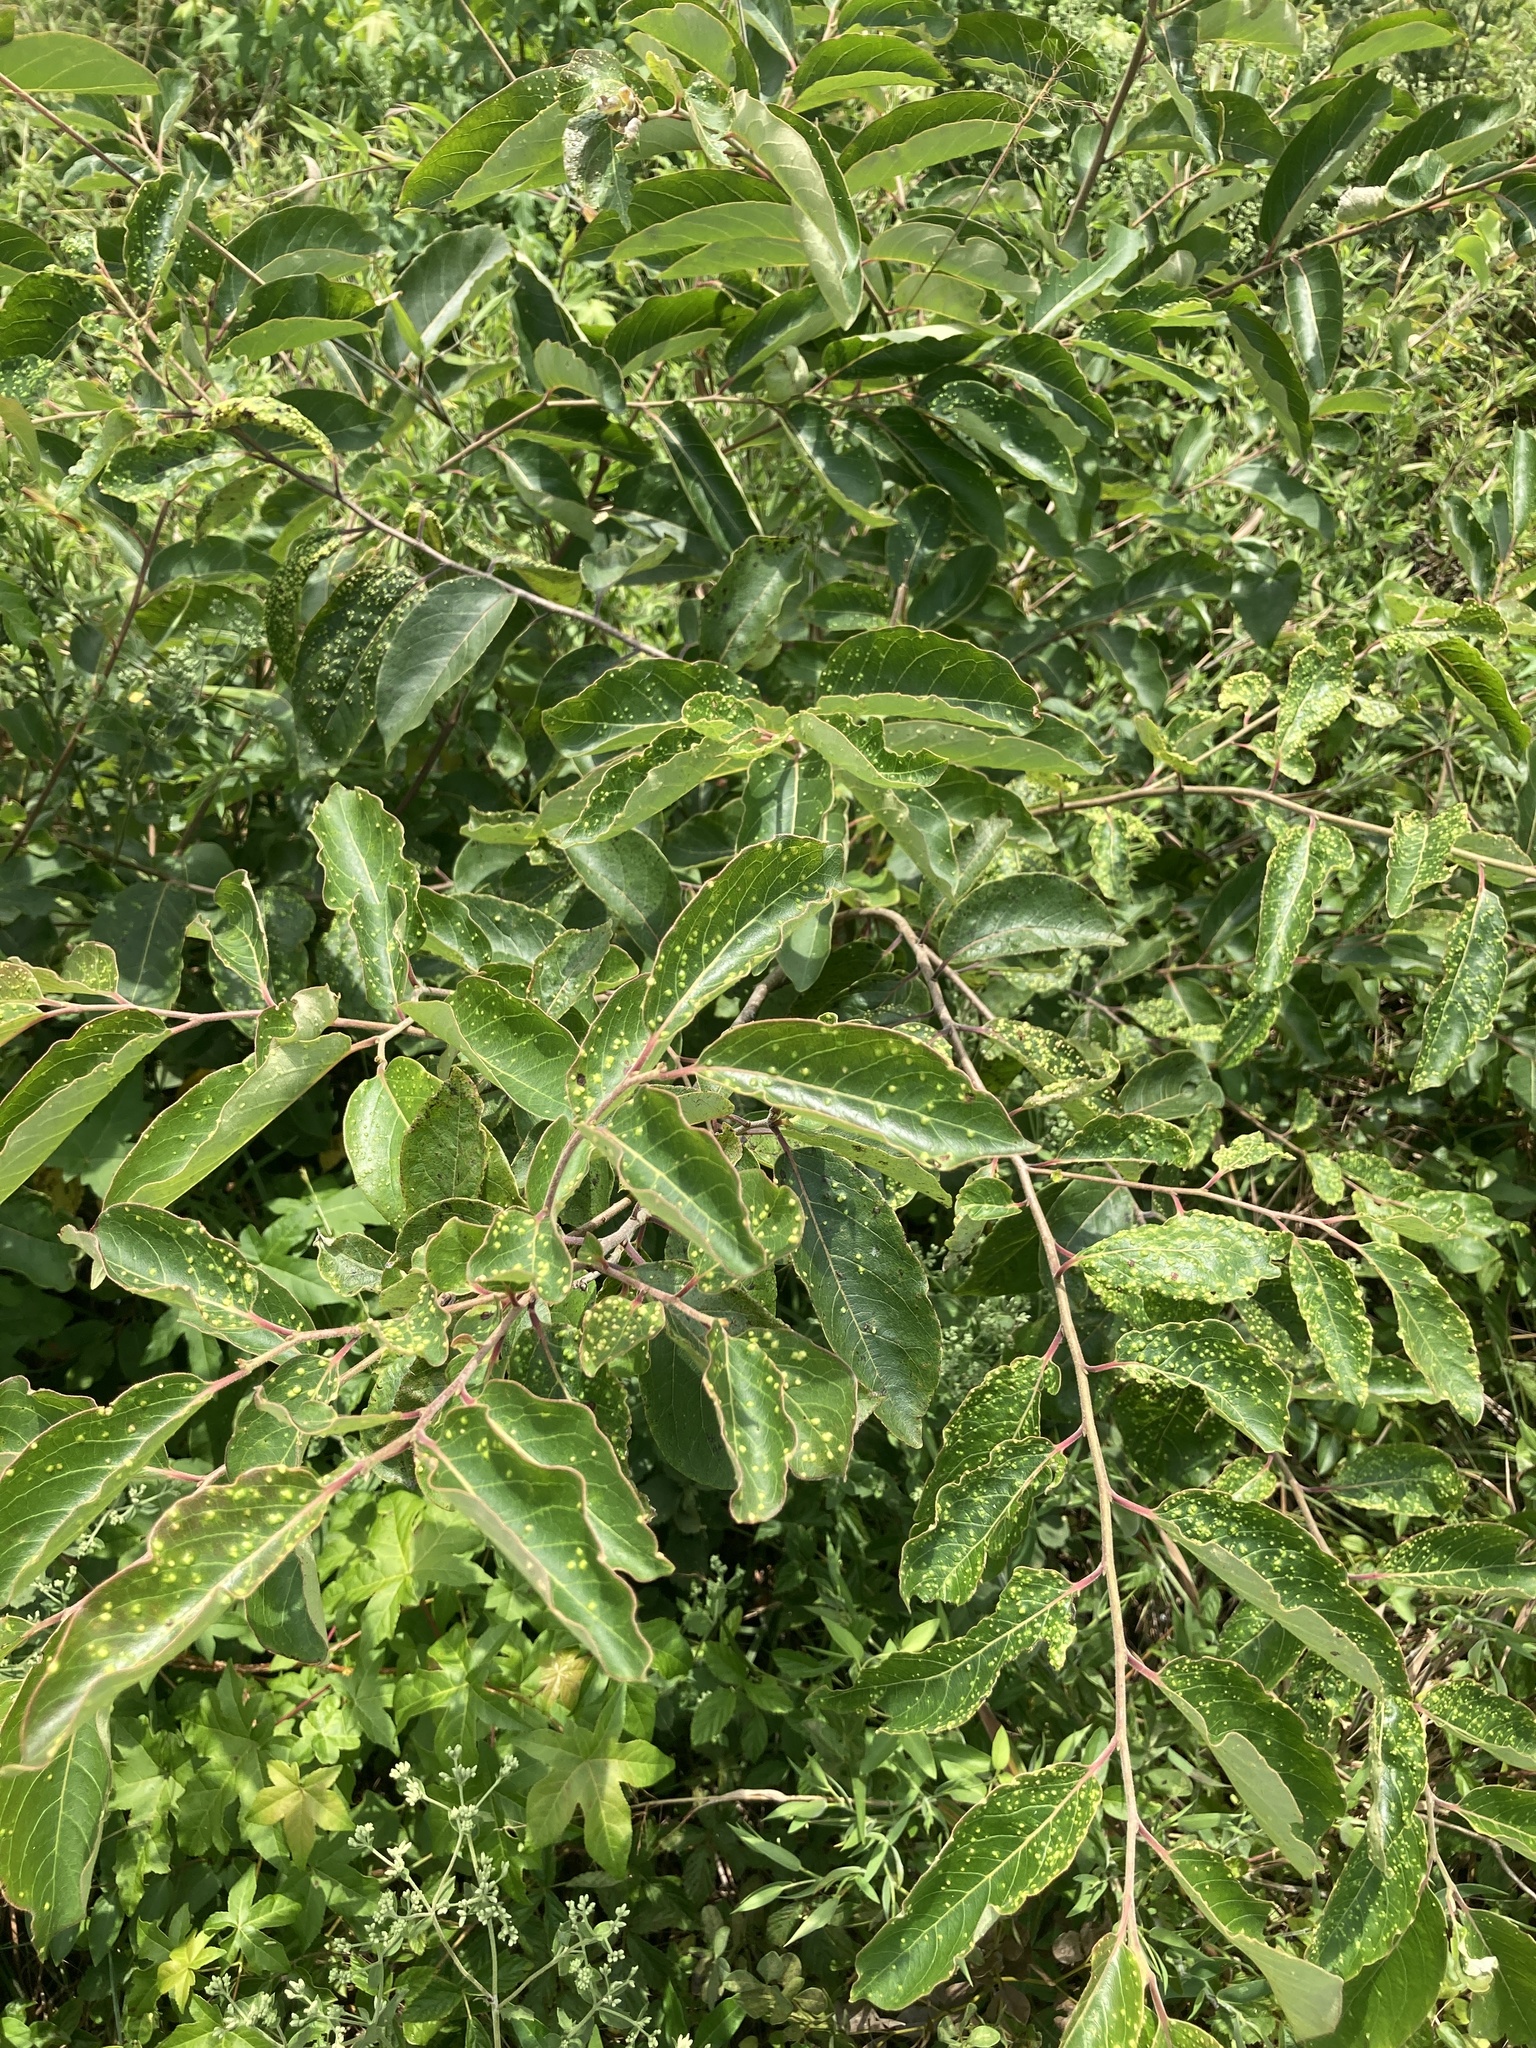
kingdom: Plantae
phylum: Tracheophyta
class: Magnoliopsida
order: Ericales
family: Ebenaceae
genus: Diospyros
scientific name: Diospyros virginiana
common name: Persimmon
